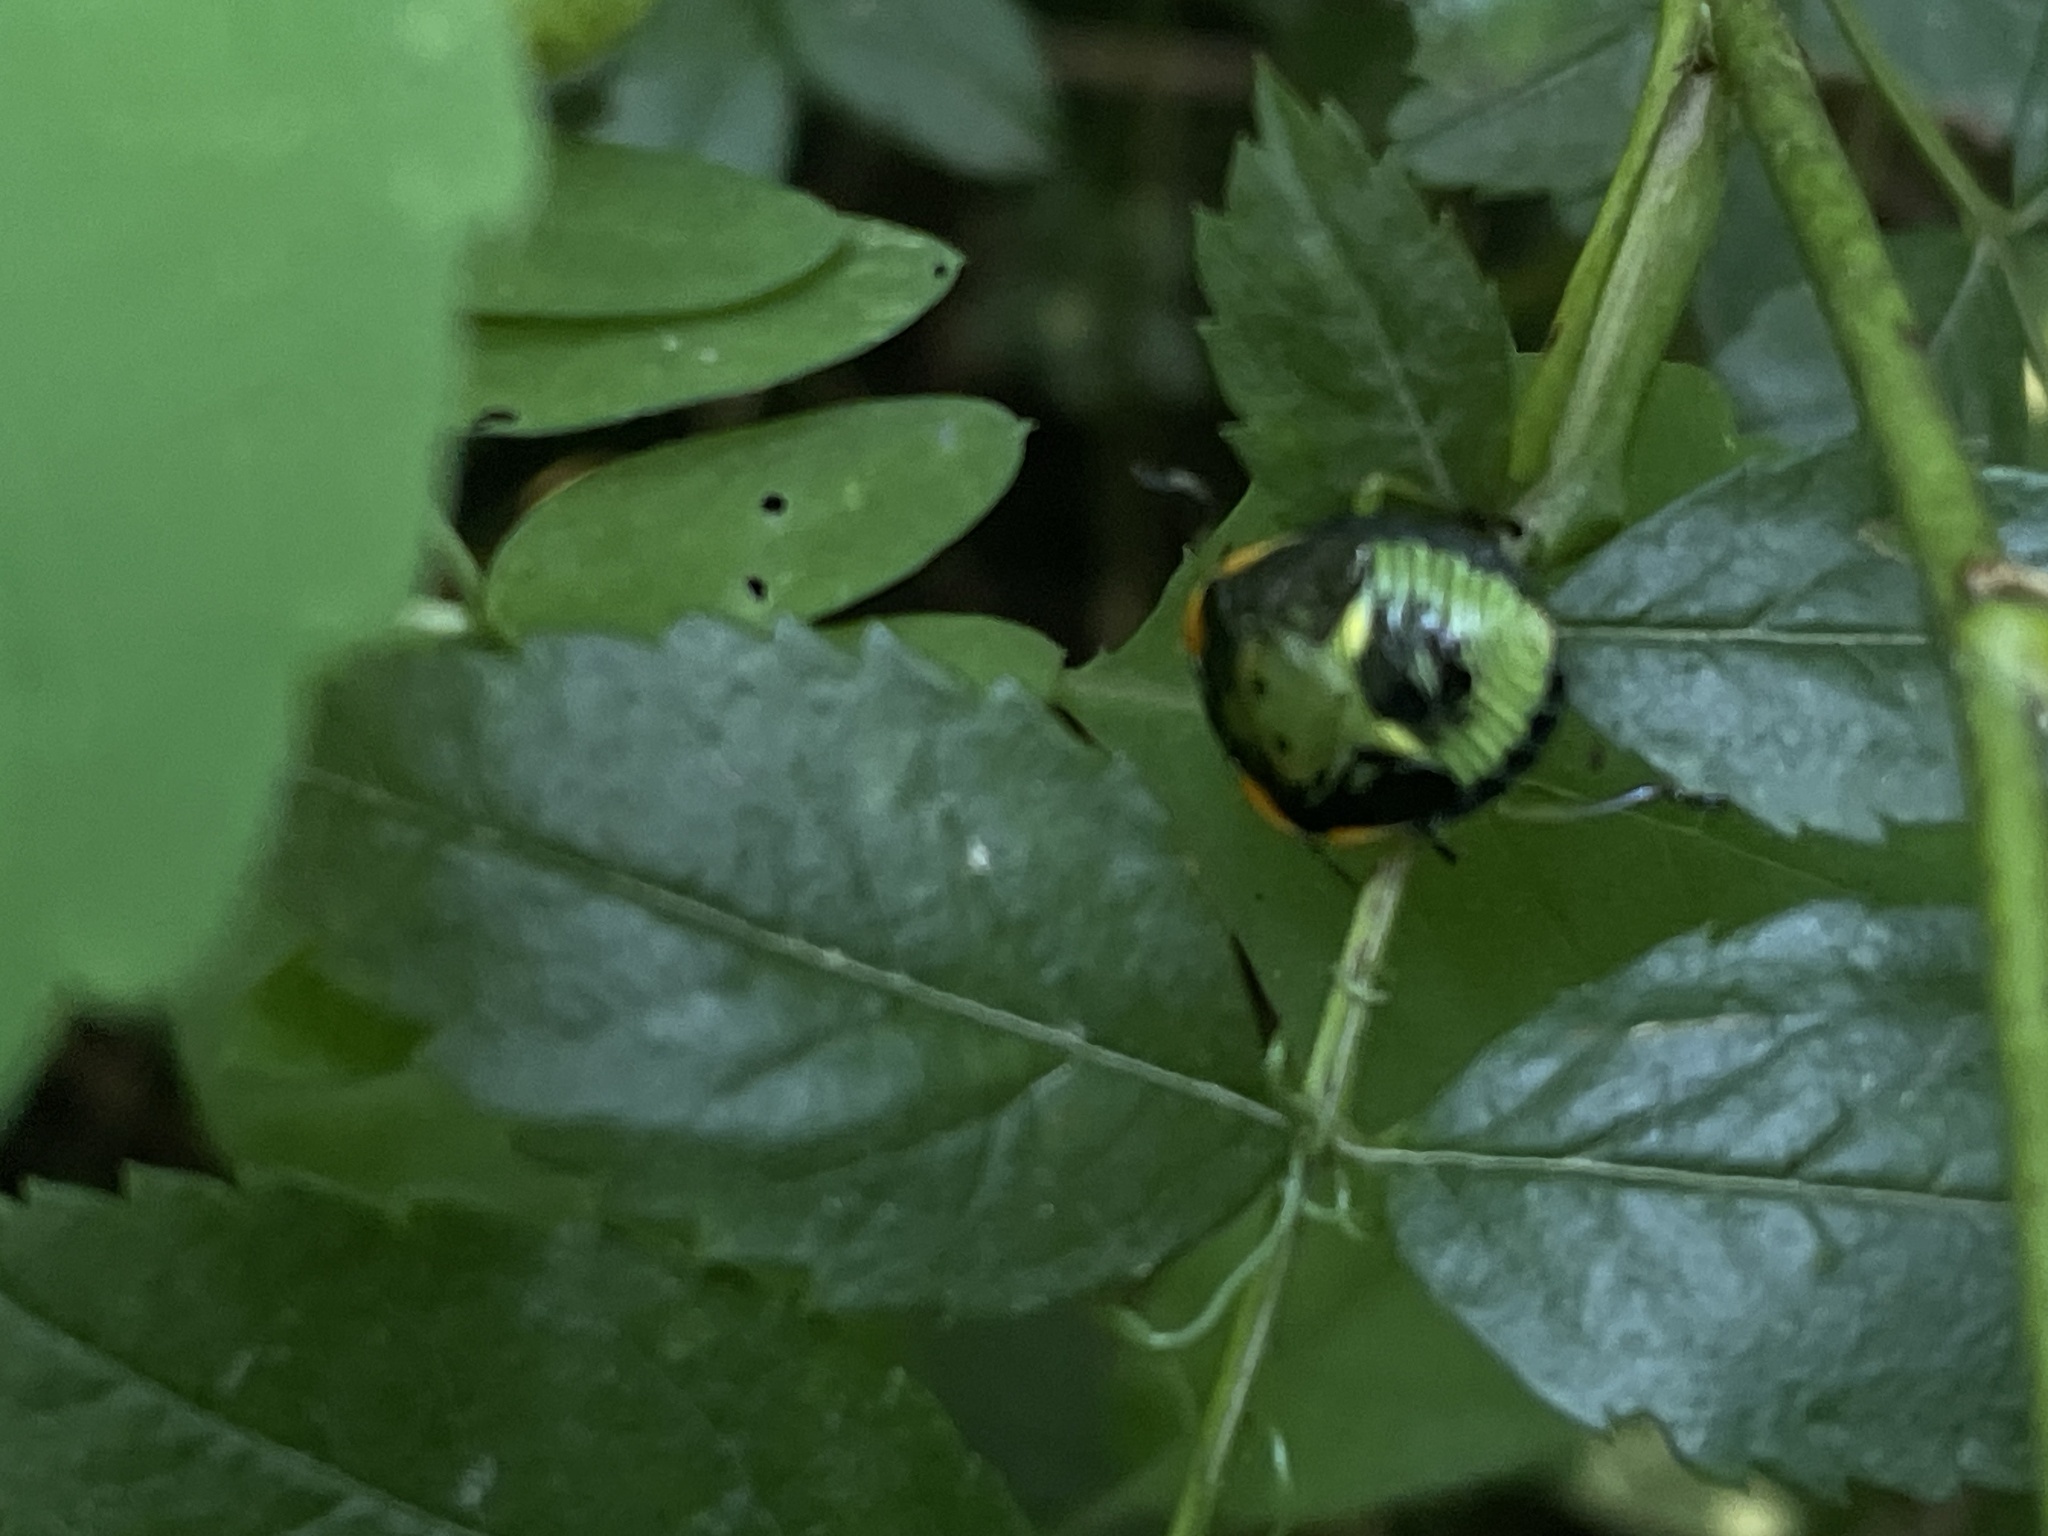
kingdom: Animalia
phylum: Arthropoda
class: Insecta
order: Hemiptera
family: Pentatomidae
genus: Chinavia
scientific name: Chinavia hilaris
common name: Green stink bug
